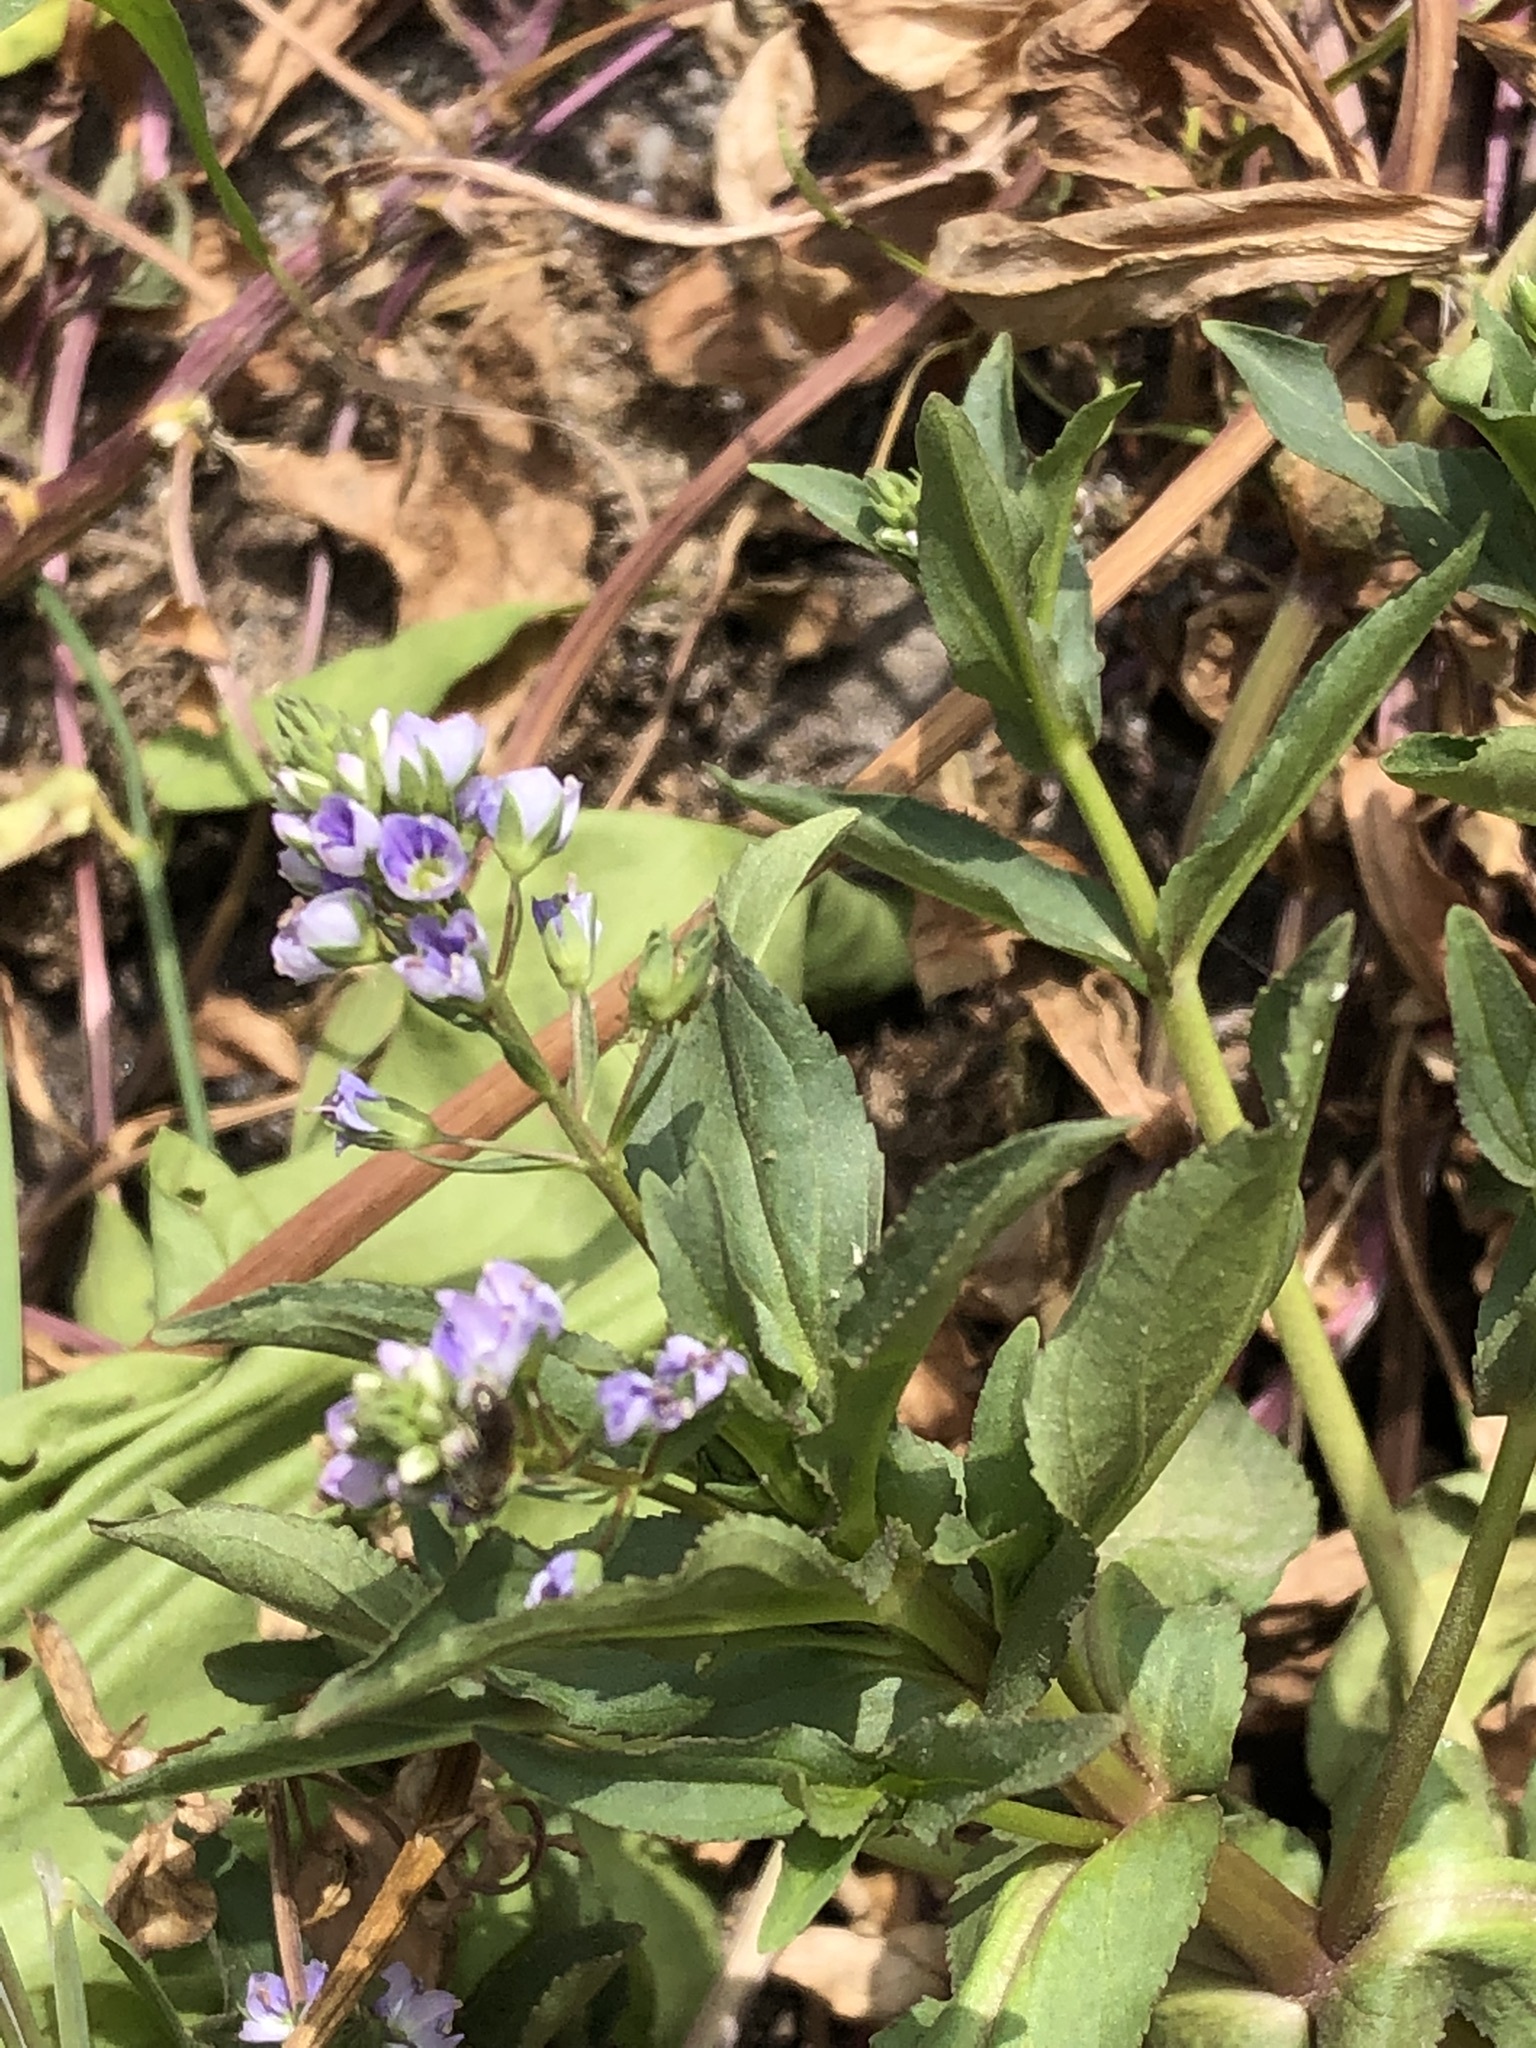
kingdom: Plantae
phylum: Tracheophyta
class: Magnoliopsida
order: Lamiales
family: Plantaginaceae
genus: Veronica
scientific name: Veronica anagallis-aquatica
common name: Water speedwell
